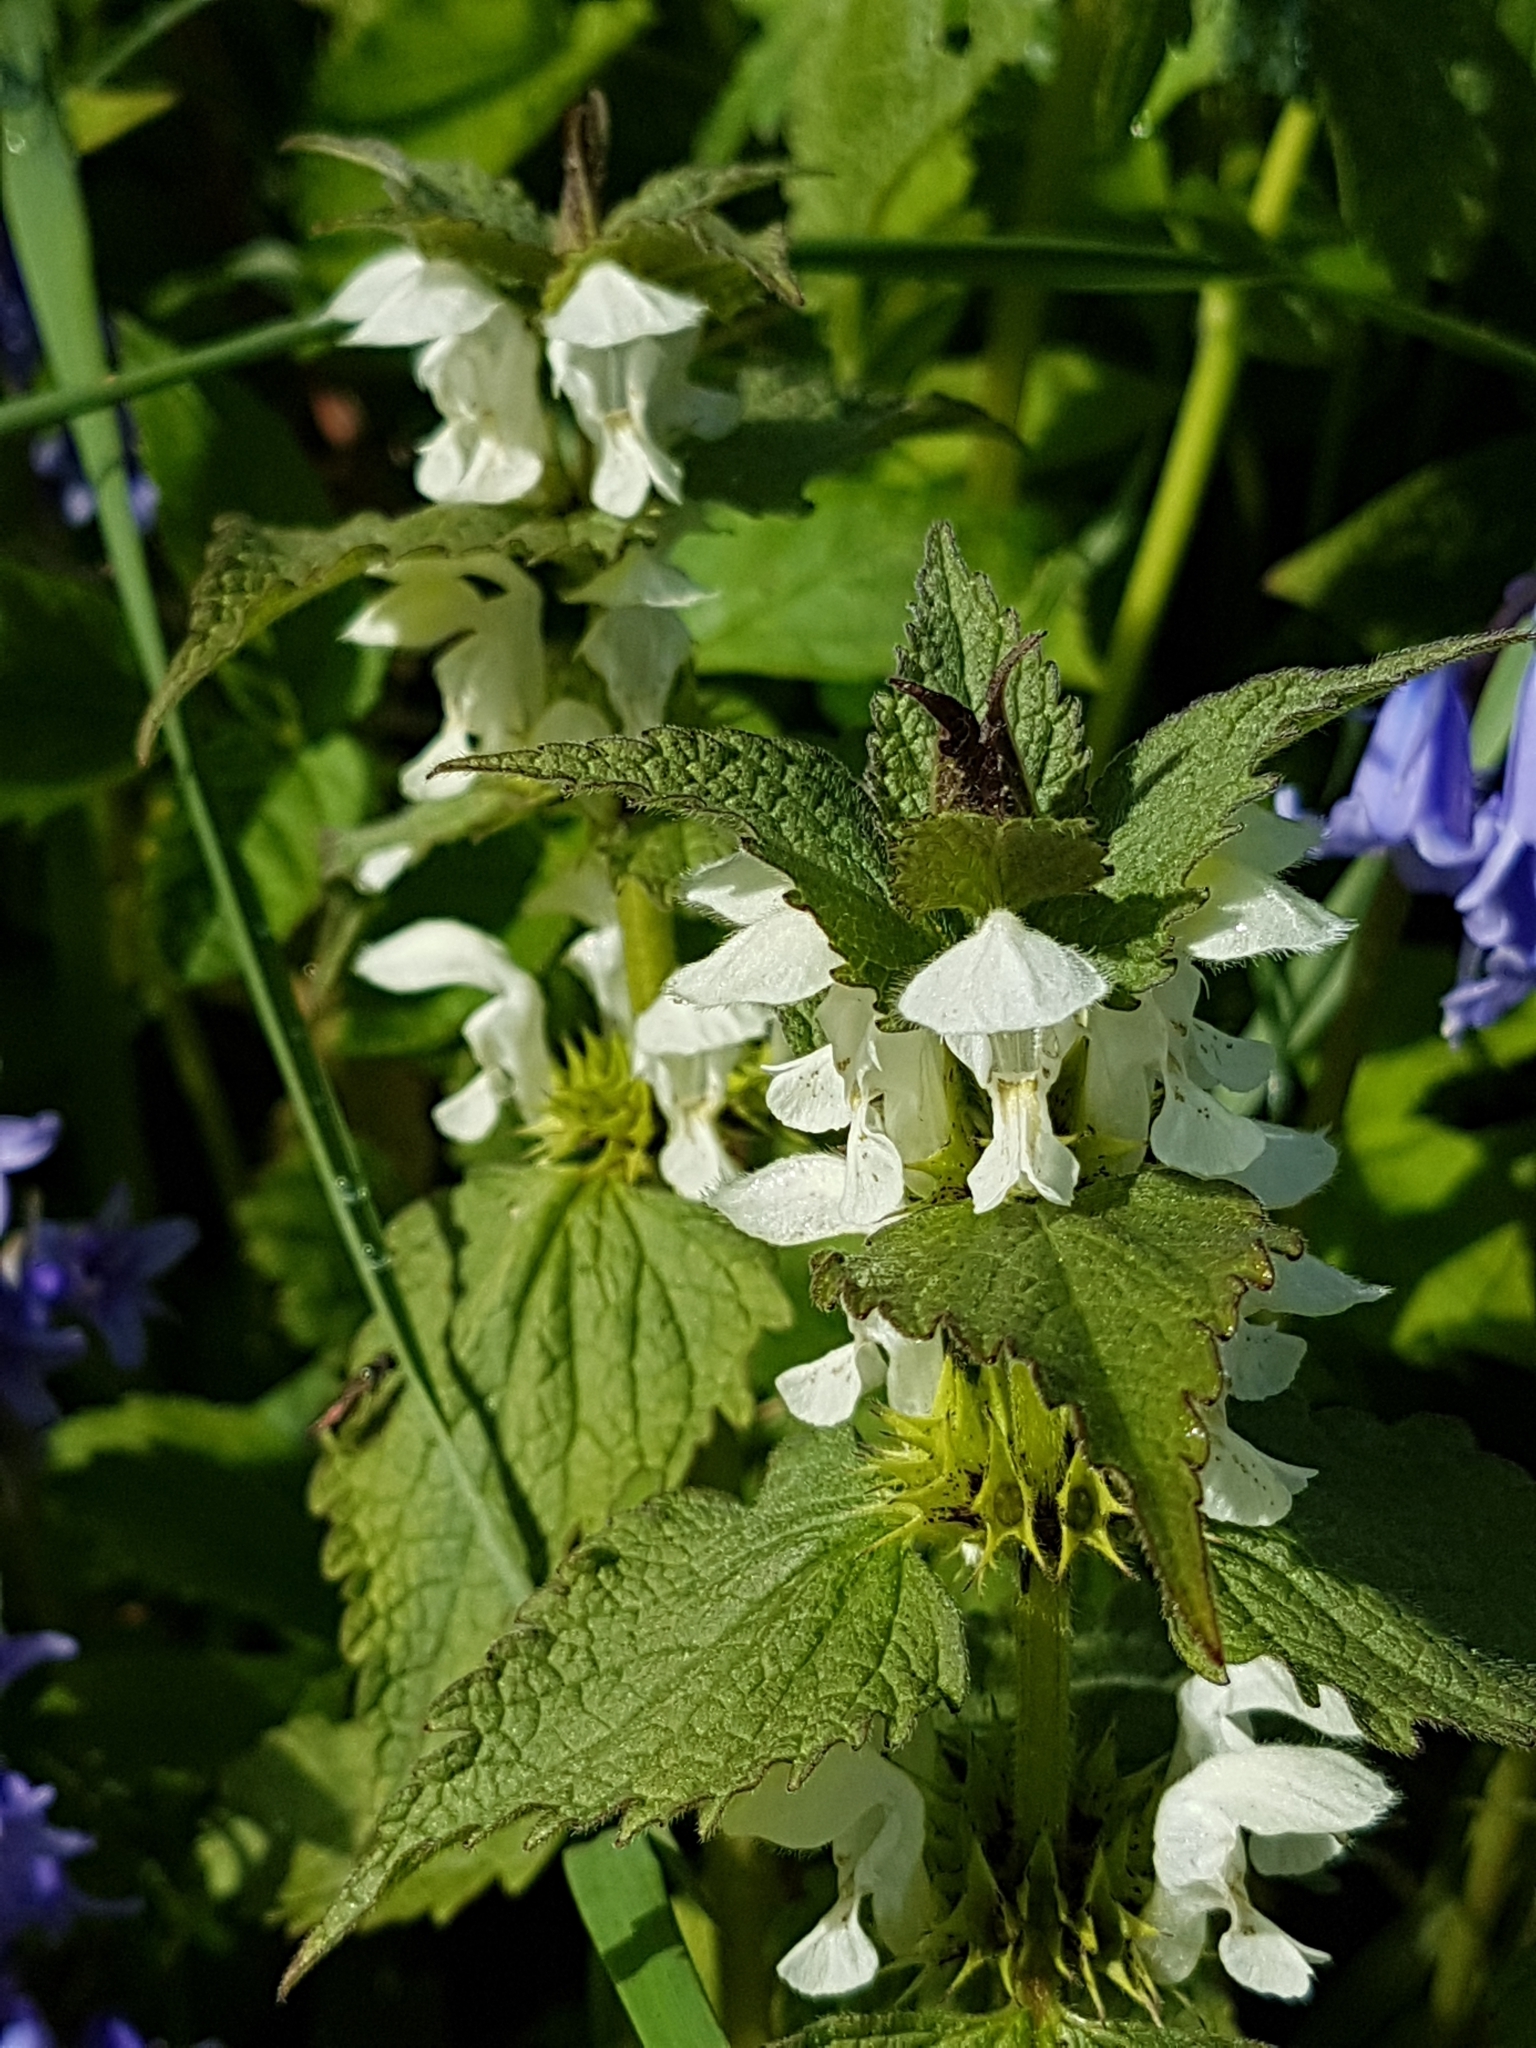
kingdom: Plantae
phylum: Tracheophyta
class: Magnoliopsida
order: Lamiales
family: Lamiaceae
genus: Lamium
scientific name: Lamium album
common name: White dead-nettle
